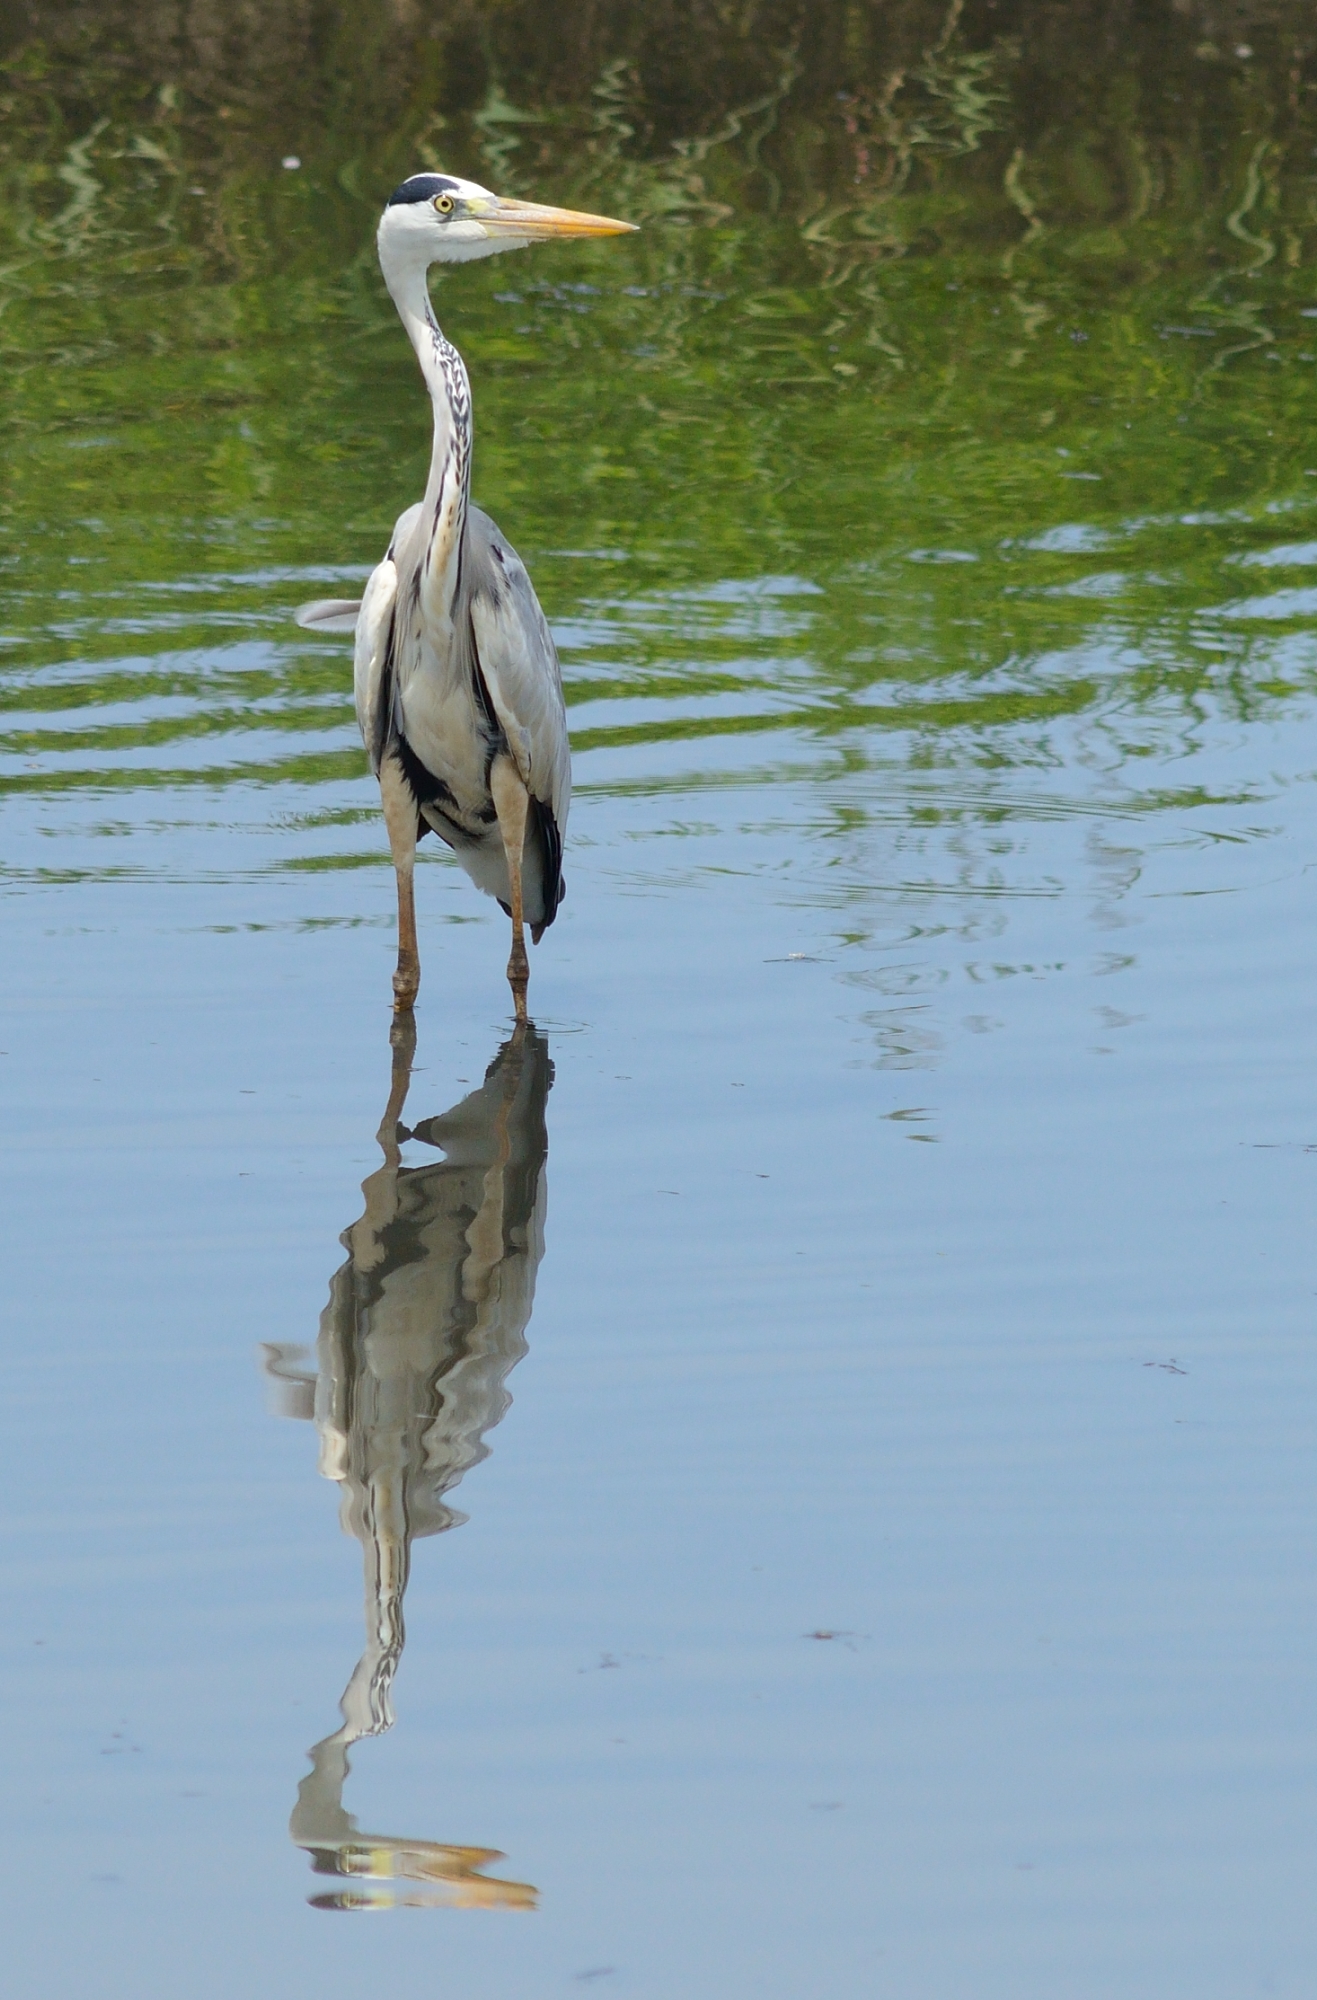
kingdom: Animalia
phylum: Chordata
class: Aves
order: Pelecaniformes
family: Ardeidae
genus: Ardea
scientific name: Ardea cinerea
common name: Grey heron
